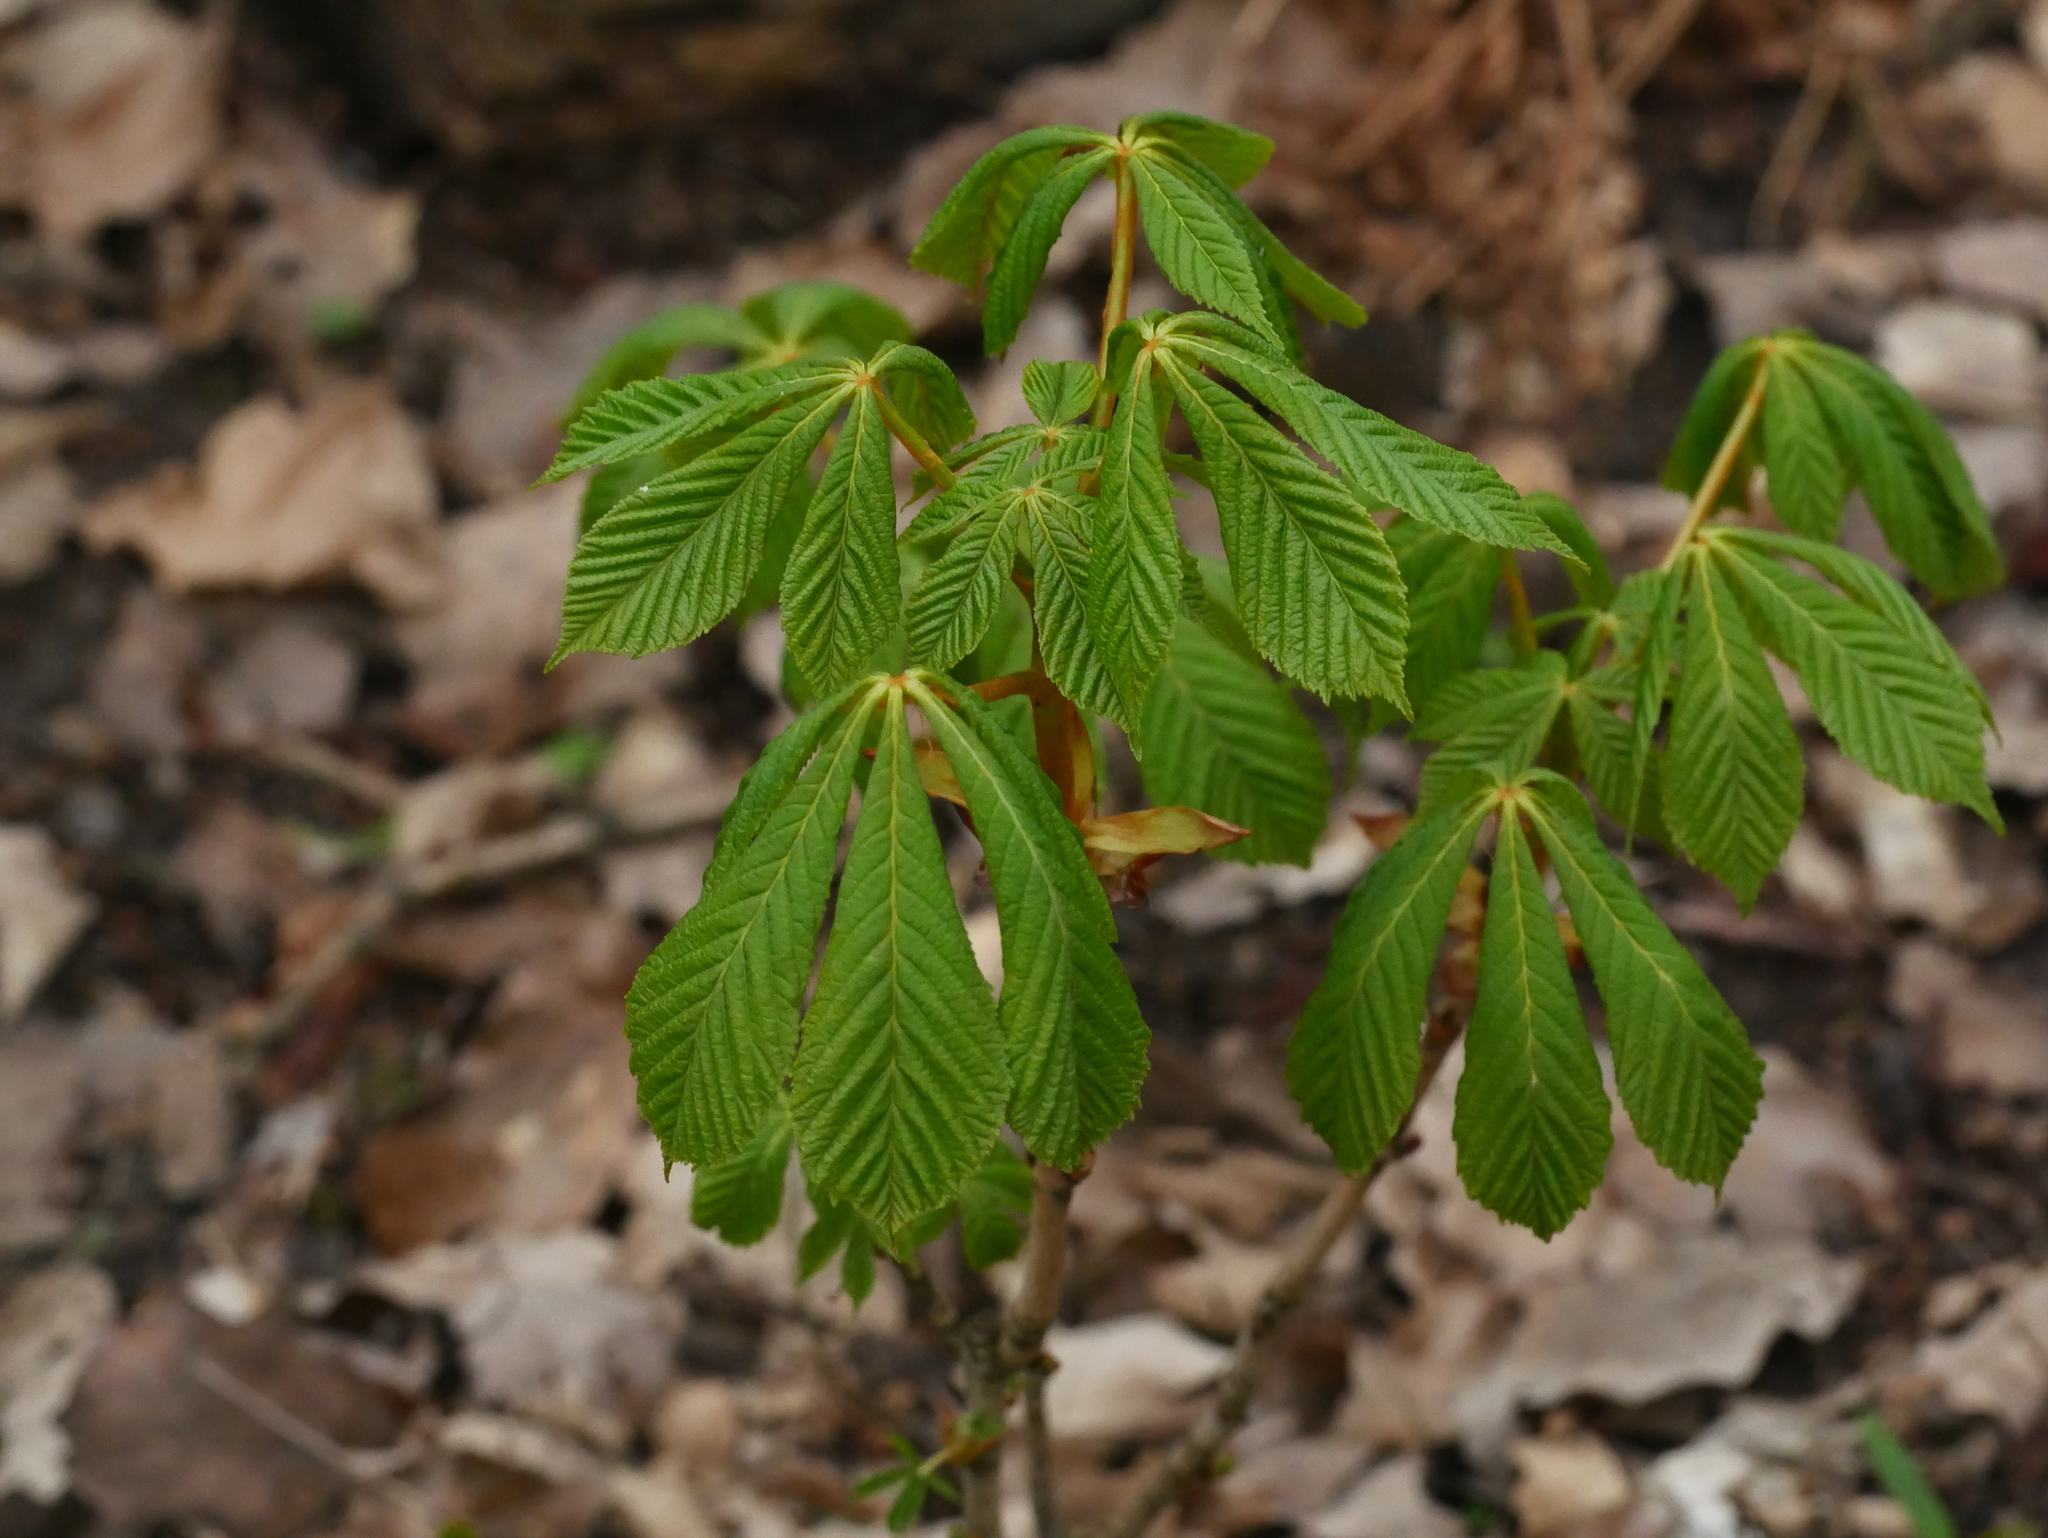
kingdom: Plantae
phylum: Tracheophyta
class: Magnoliopsida
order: Sapindales
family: Sapindaceae
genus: Aesculus
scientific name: Aesculus hippocastanum
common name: Horse-chestnut
